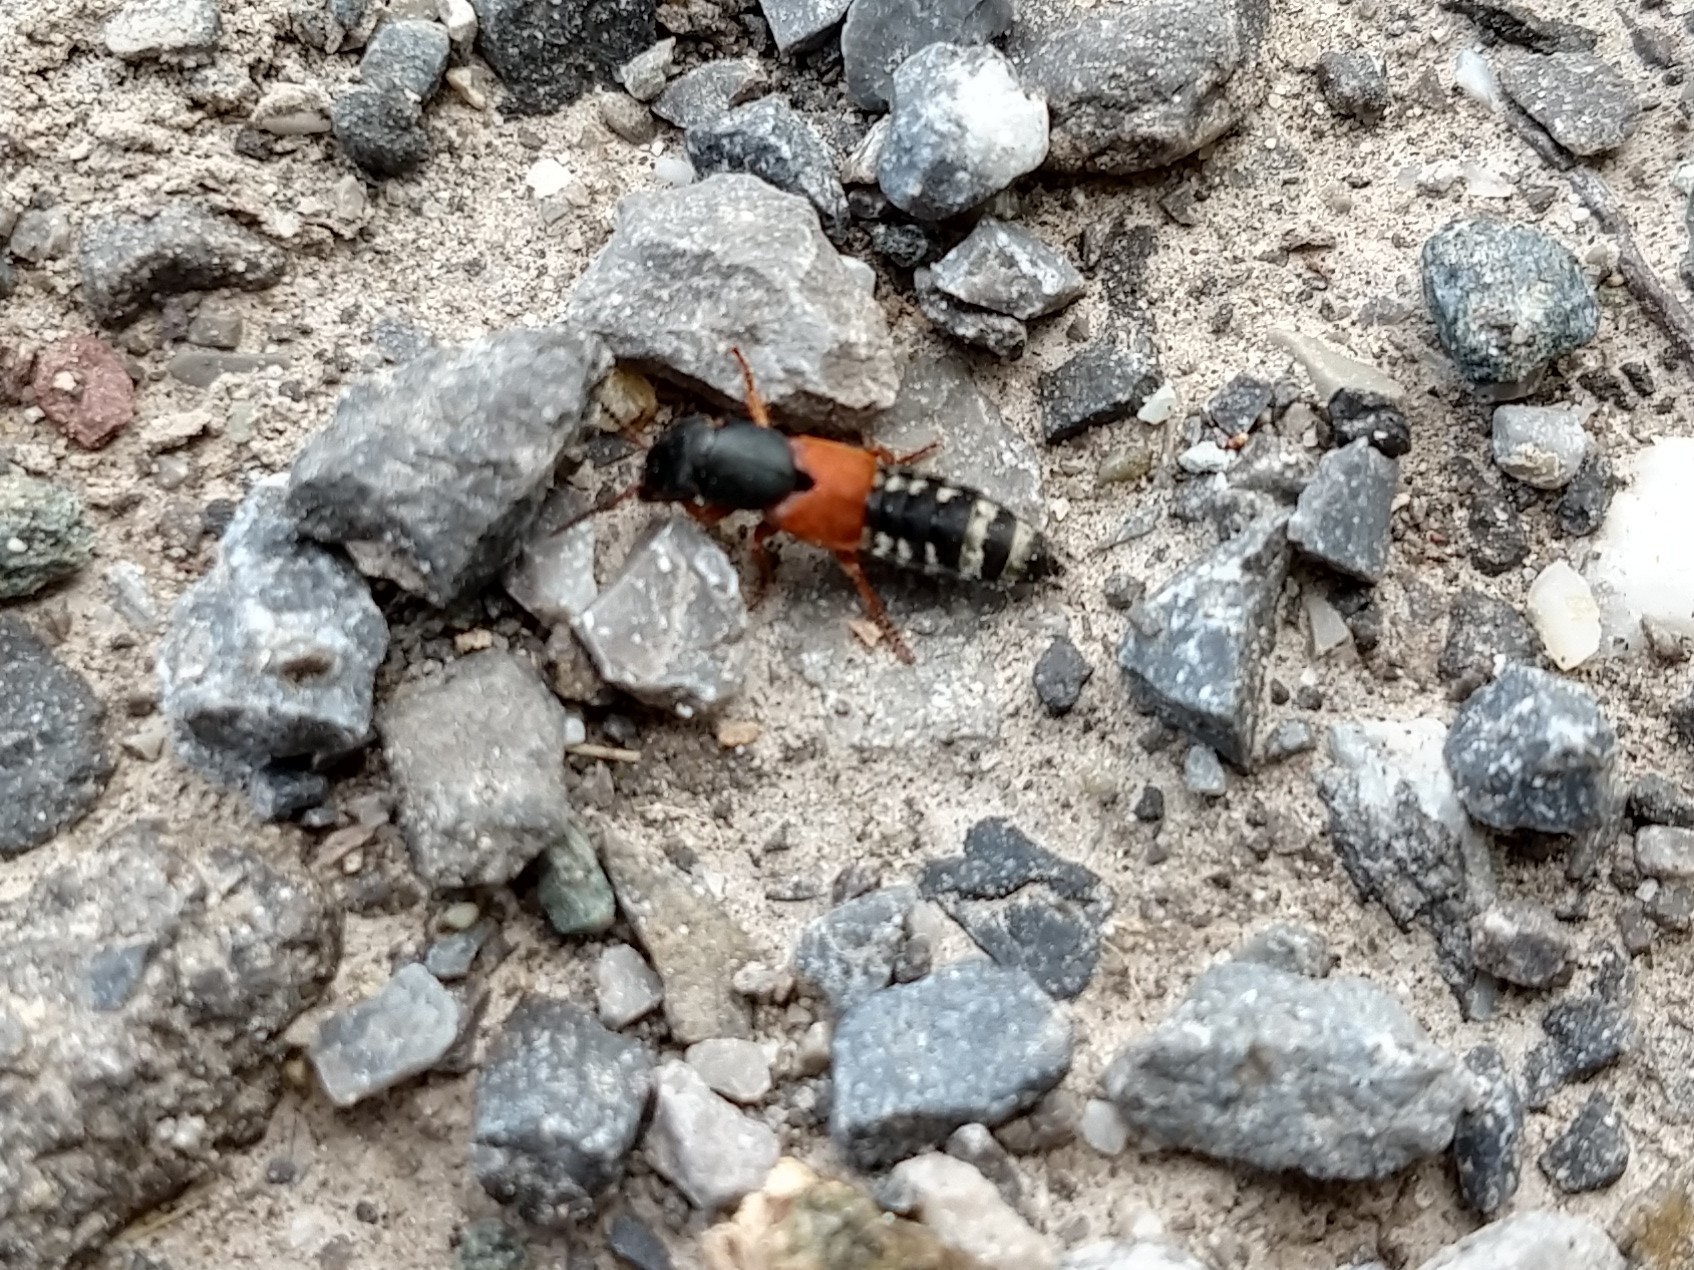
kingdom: Animalia
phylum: Arthropoda
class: Insecta
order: Coleoptera
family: Staphylinidae
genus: Platydracus
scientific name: Platydracus stercorarius
